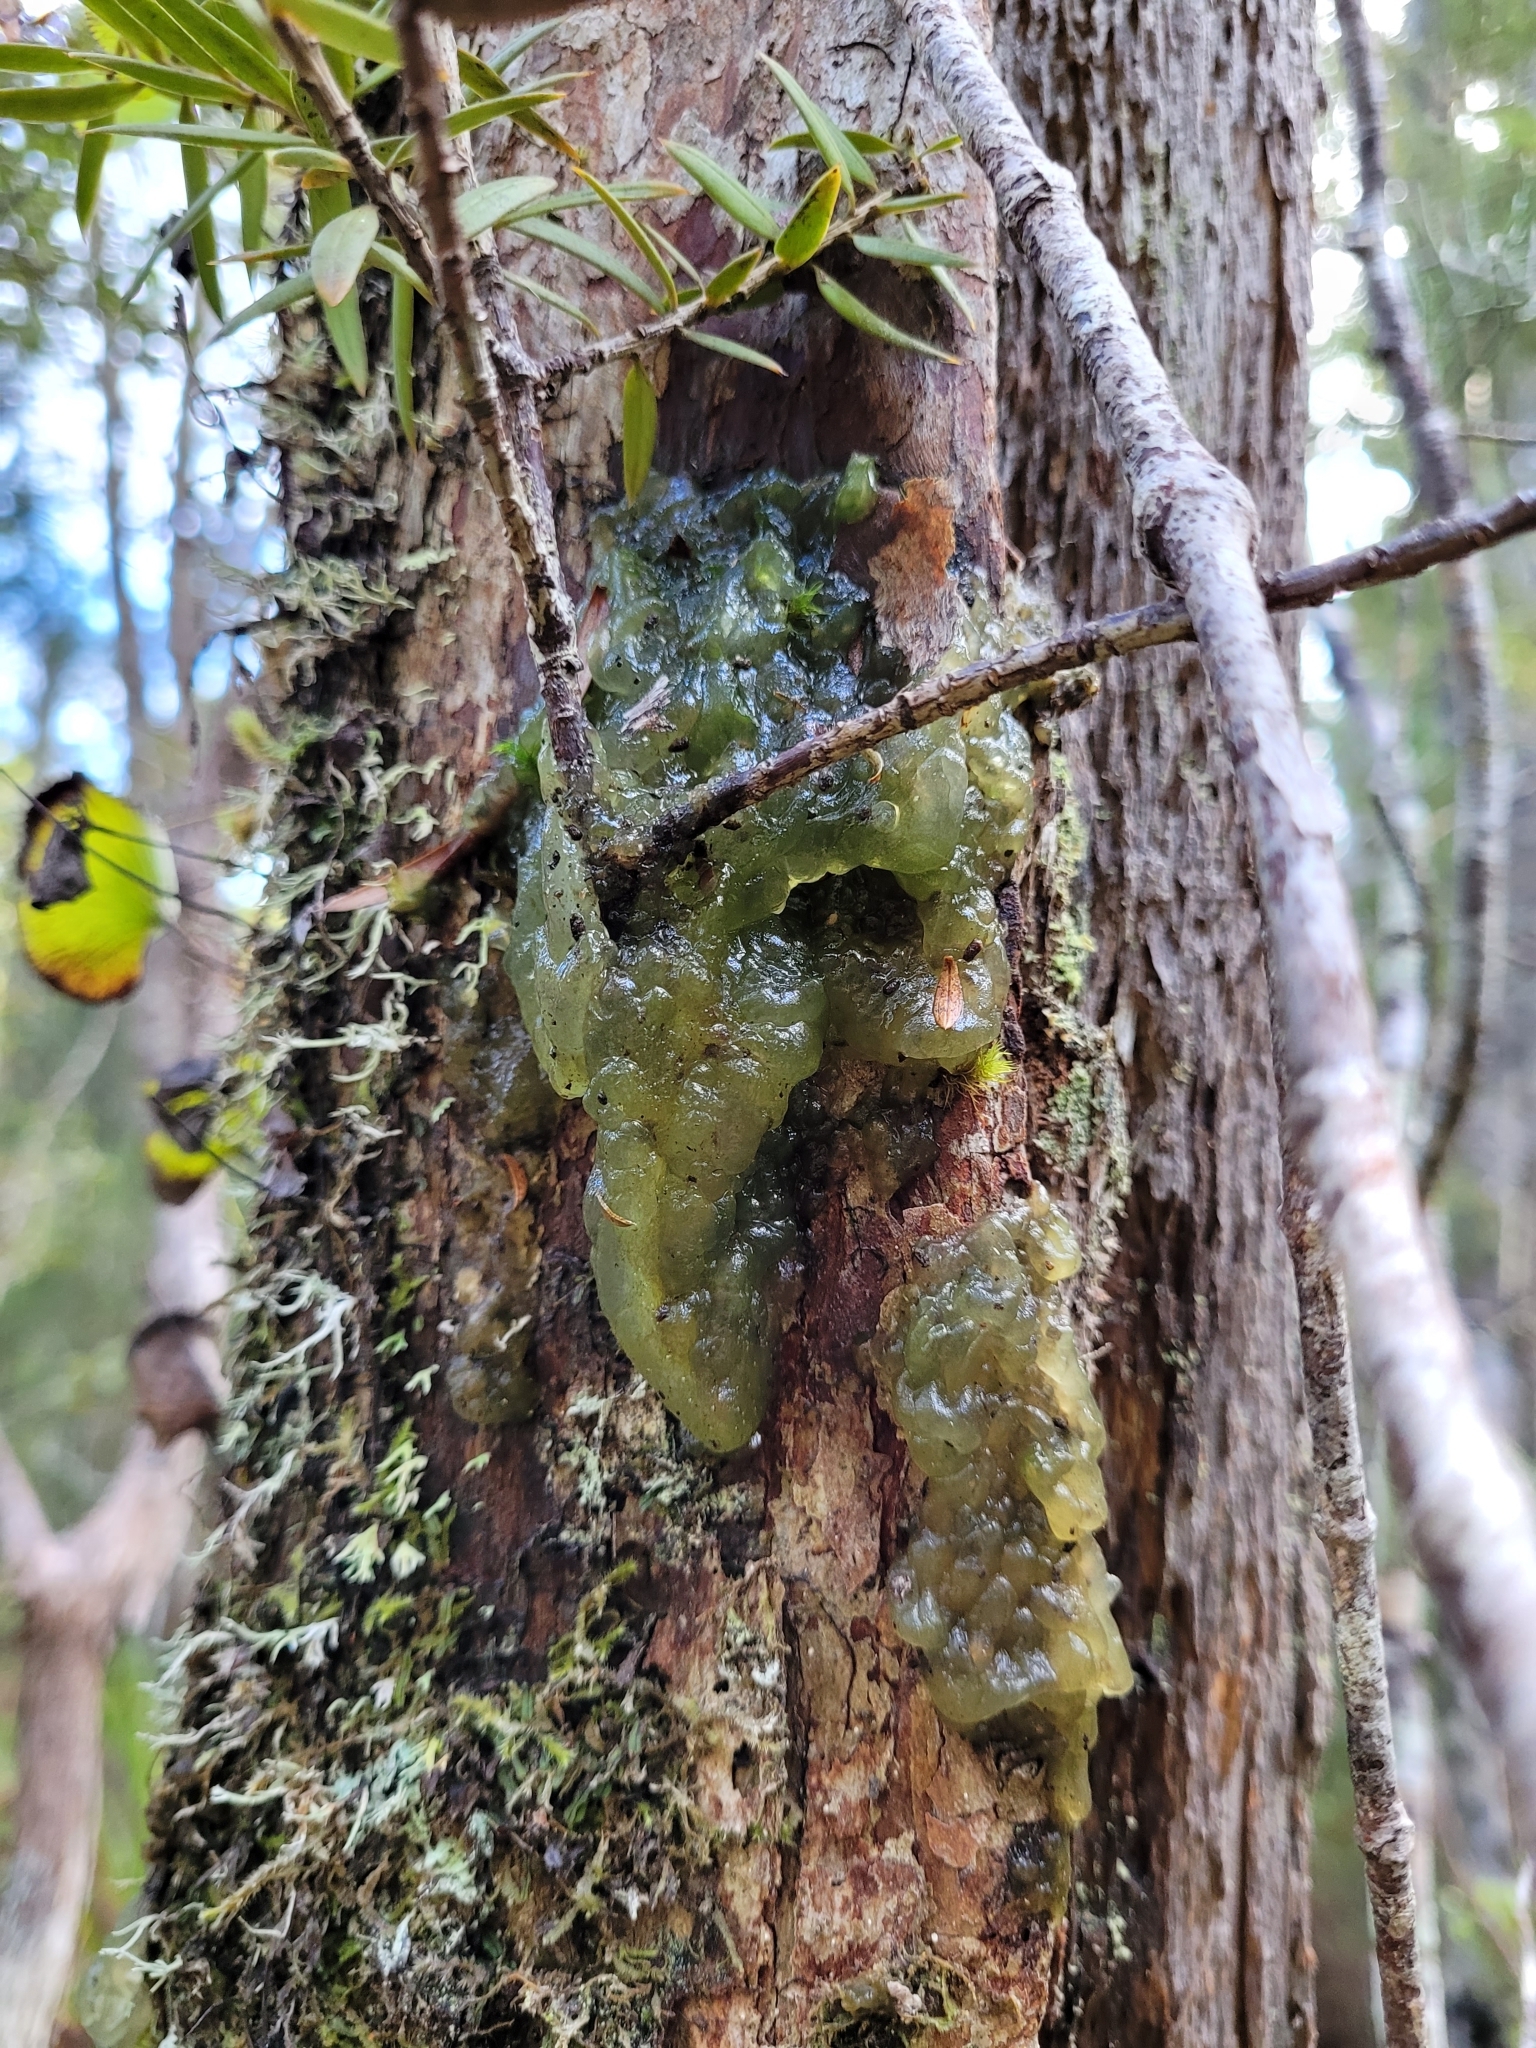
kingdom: Plantae
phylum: Charophyta
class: Zygnematophyceae
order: Zygnematales
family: Mesotaeniaceae
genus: Mesotaenium
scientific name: Mesotaenium macrococcum
